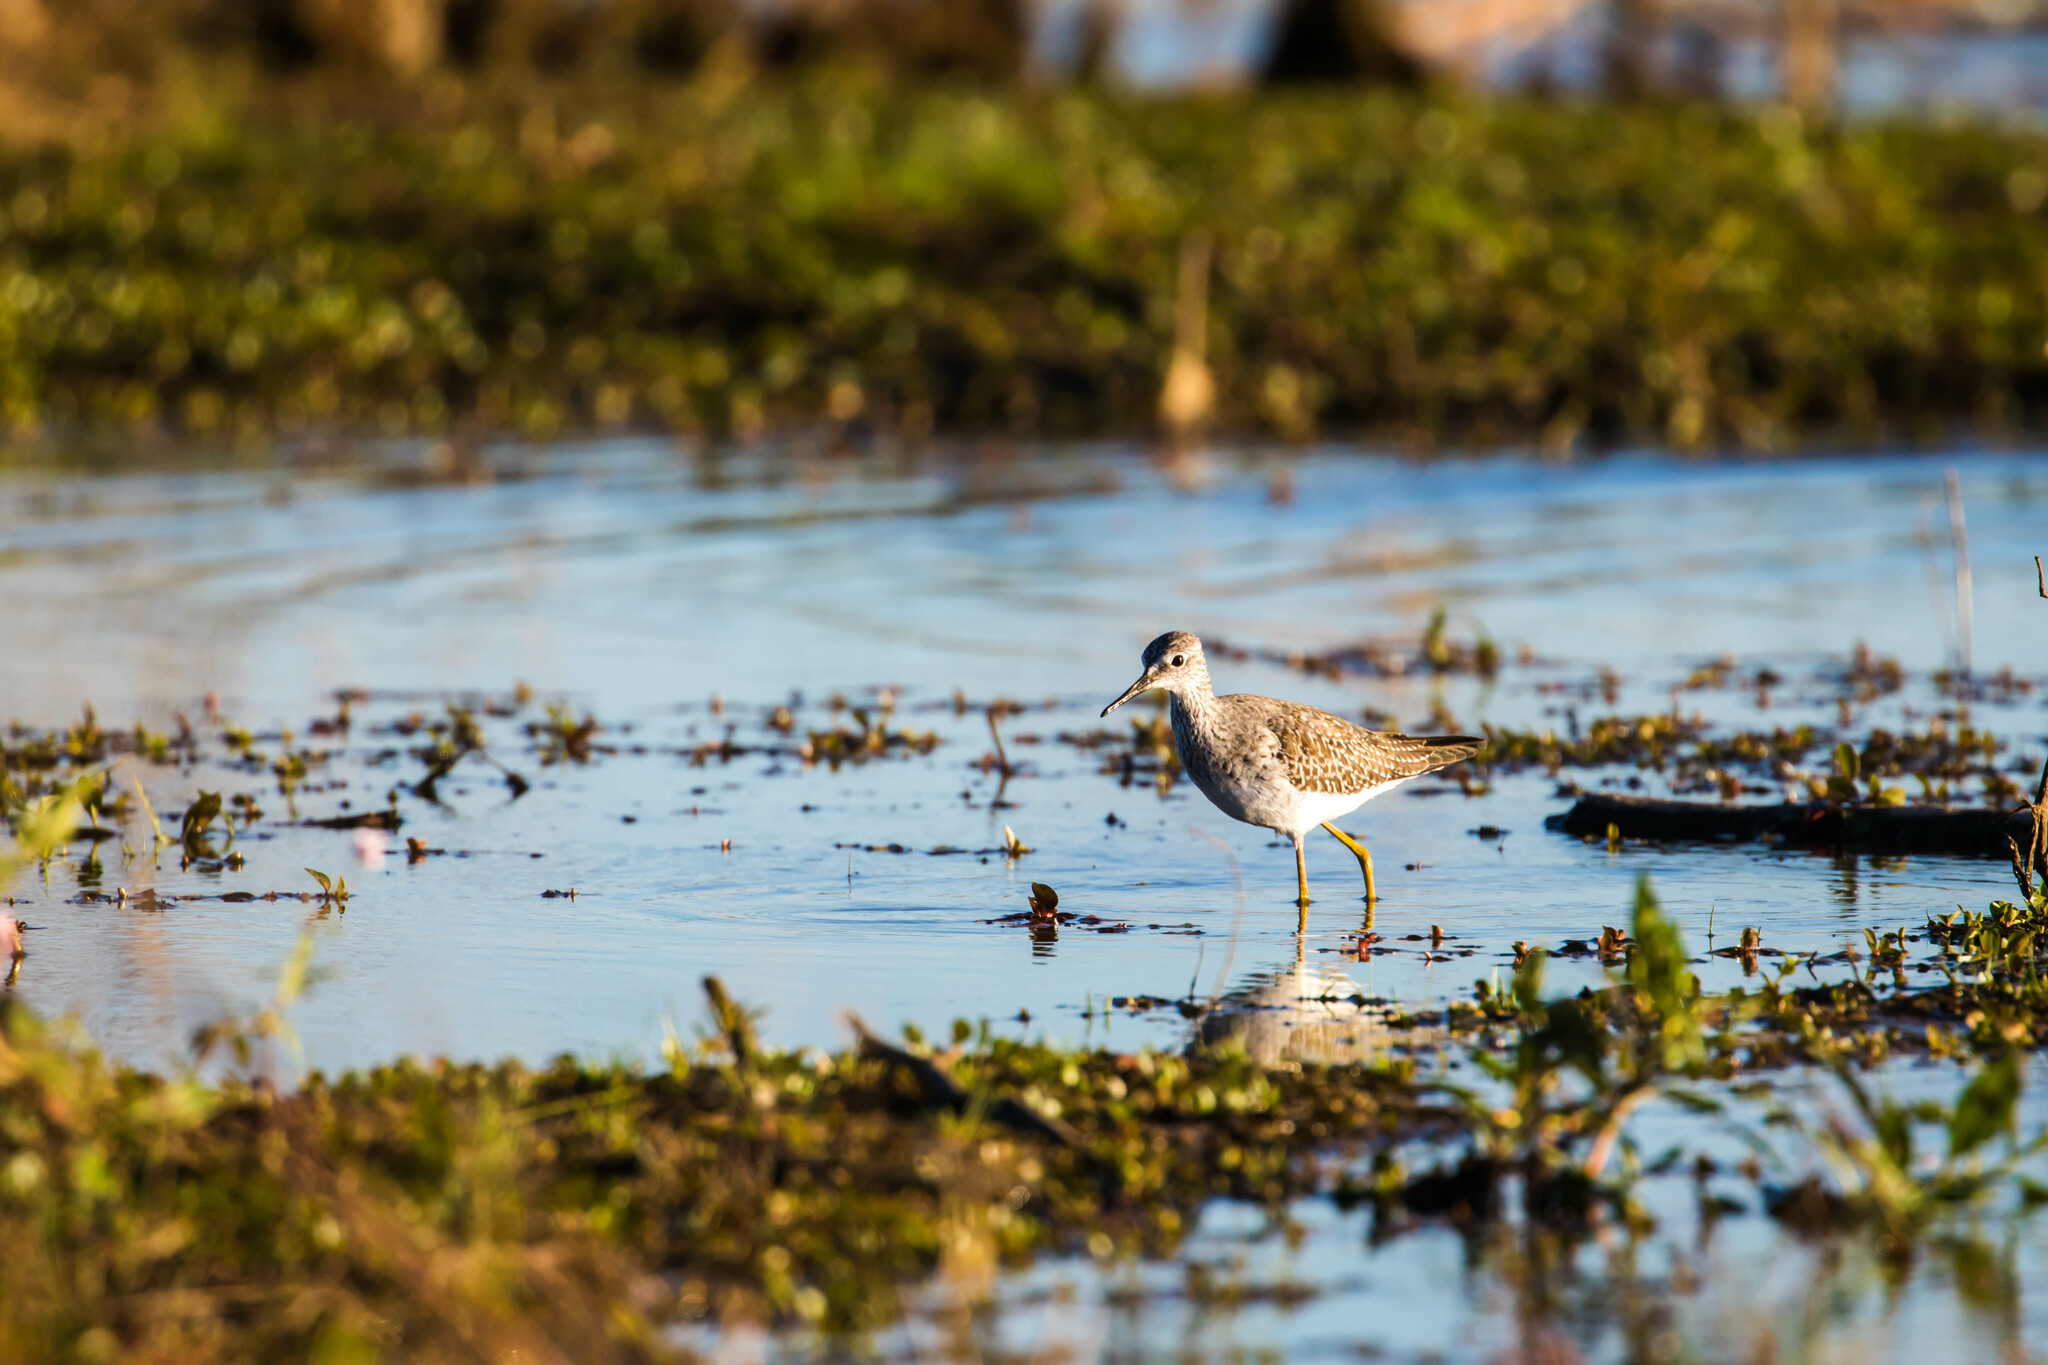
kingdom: Animalia
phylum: Chordata
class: Aves
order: Charadriiformes
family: Scolopacidae
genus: Tringa
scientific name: Tringa flavipes
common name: Lesser yellowlegs
